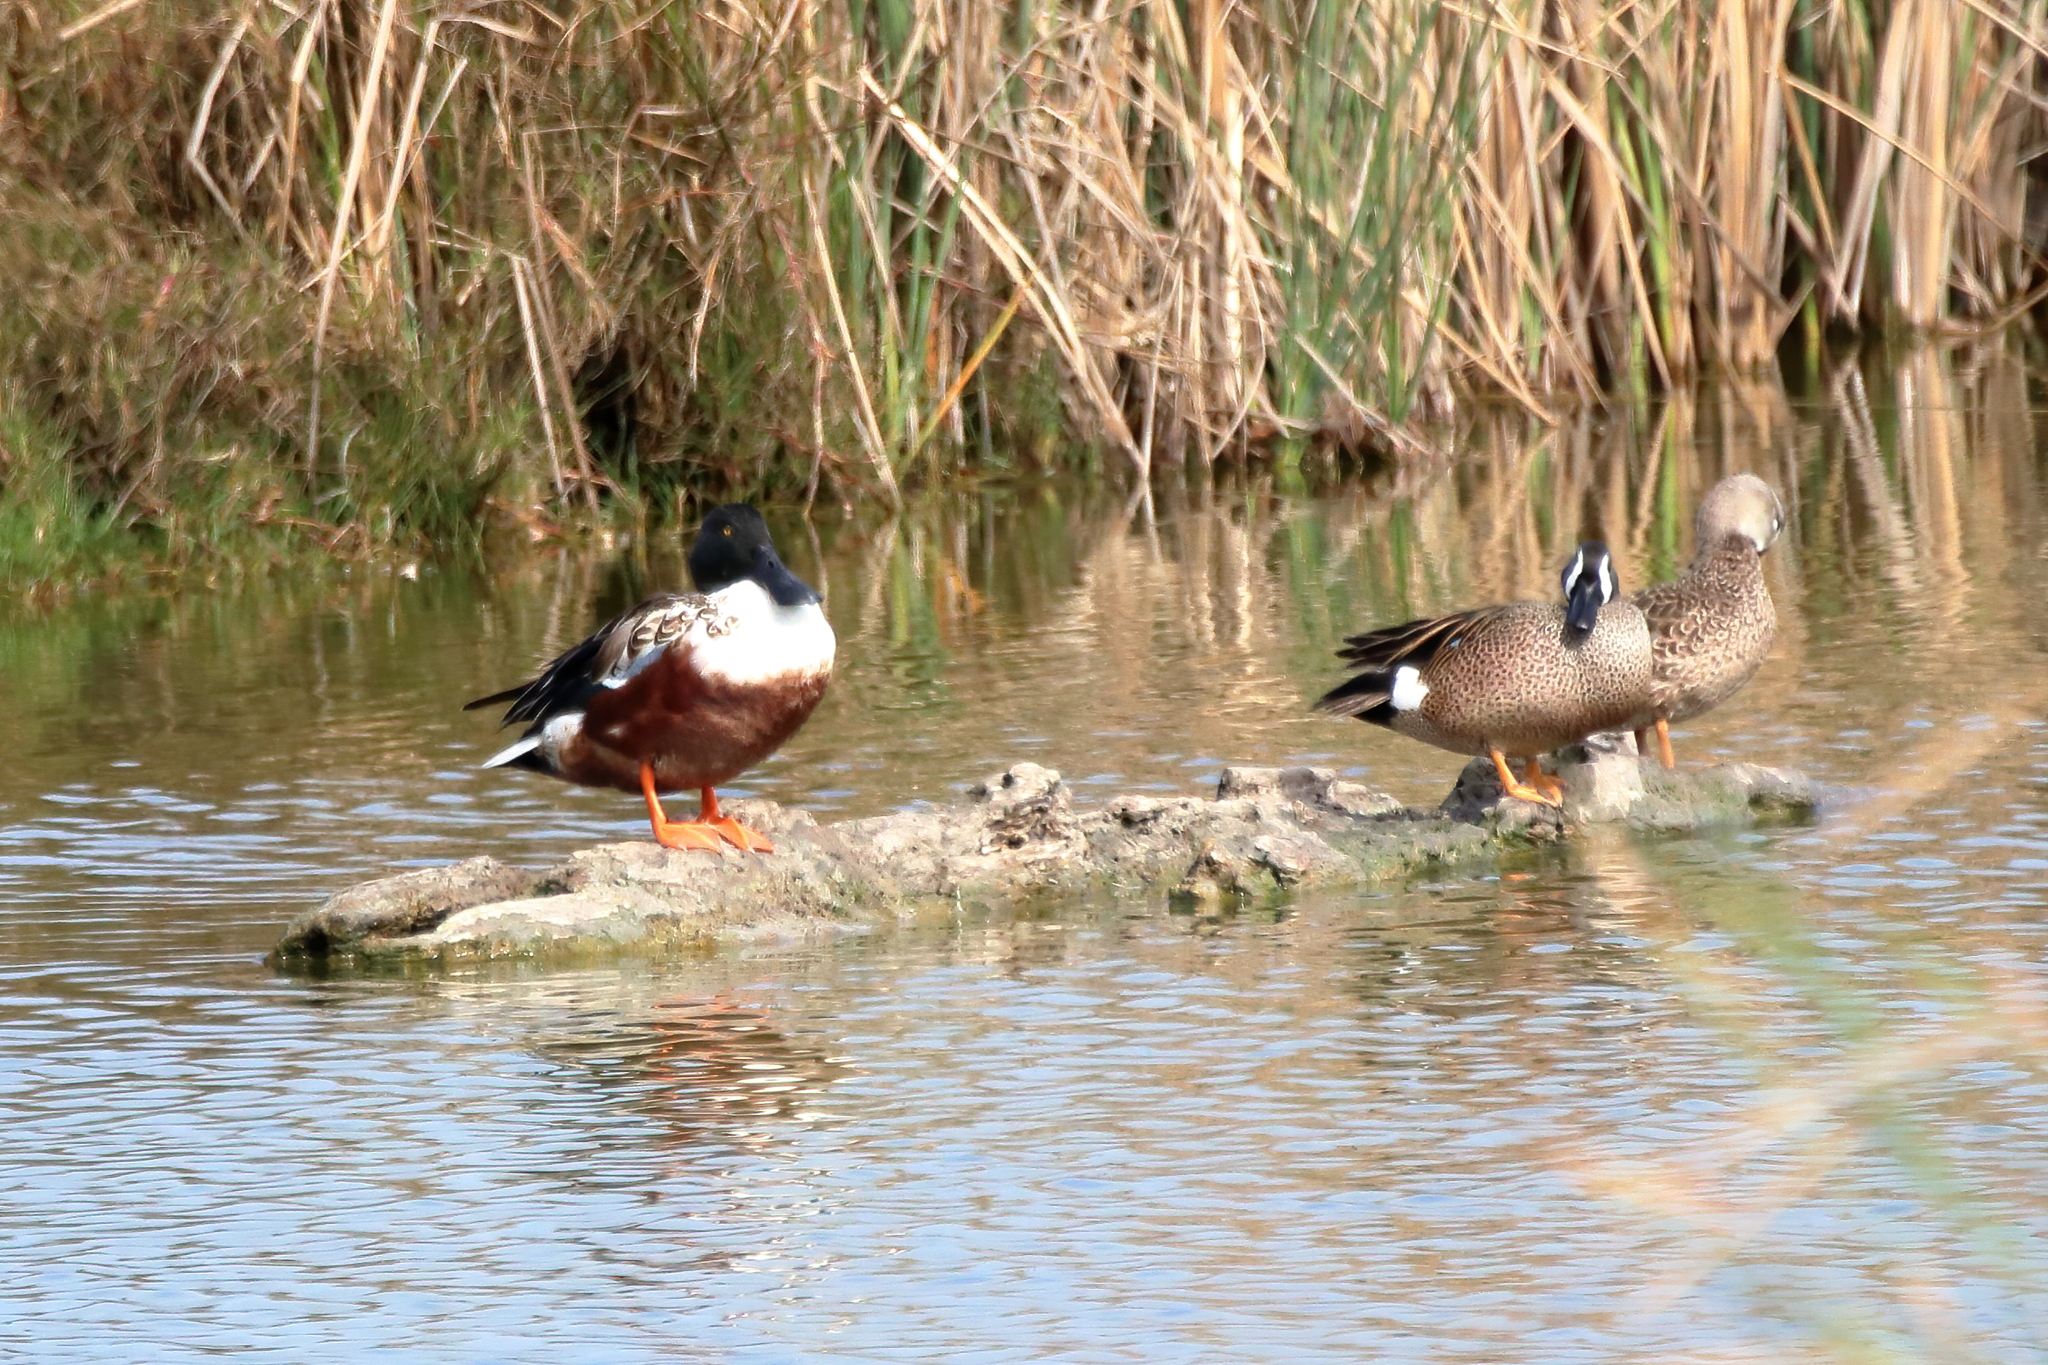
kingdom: Animalia
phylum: Chordata
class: Aves
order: Anseriformes
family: Anatidae
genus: Spatula
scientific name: Spatula clypeata
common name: Northern shoveler
